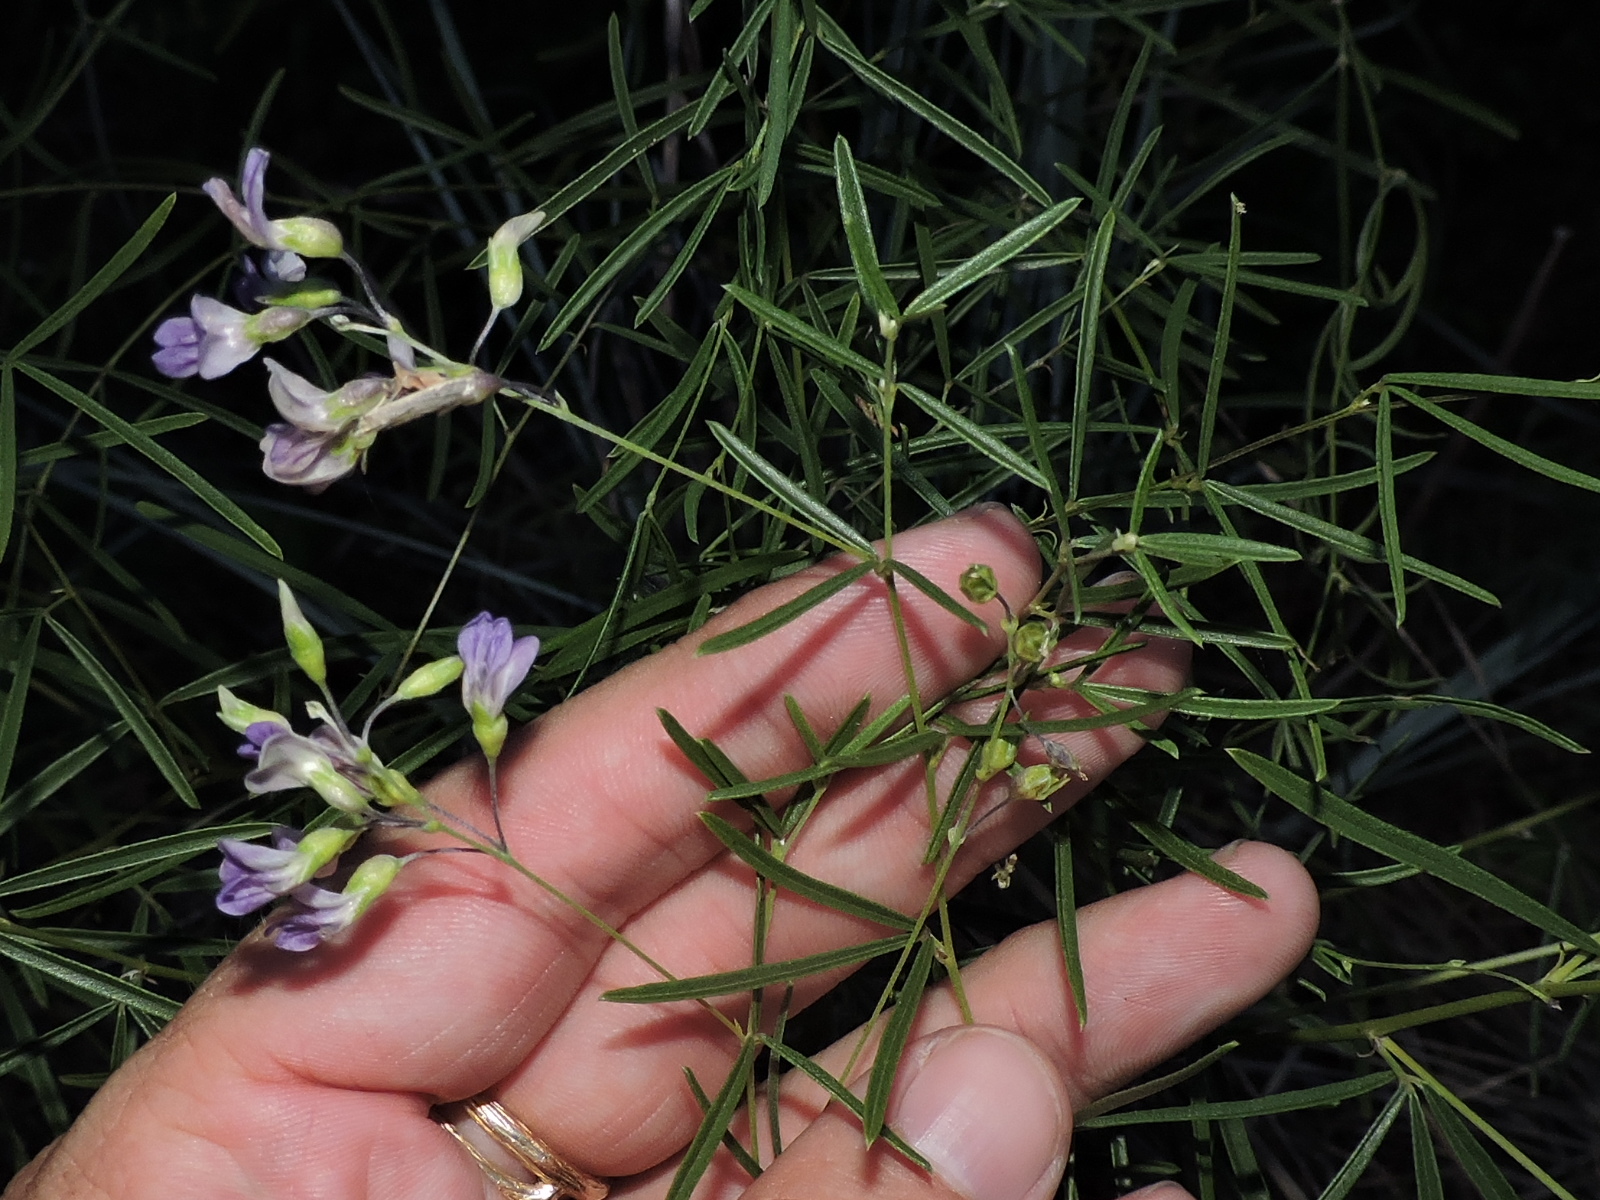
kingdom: Plantae
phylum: Tracheophyta
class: Magnoliopsida
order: Fabales
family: Fabaceae
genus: Pediomelum
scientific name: Pediomelum linearifolium
